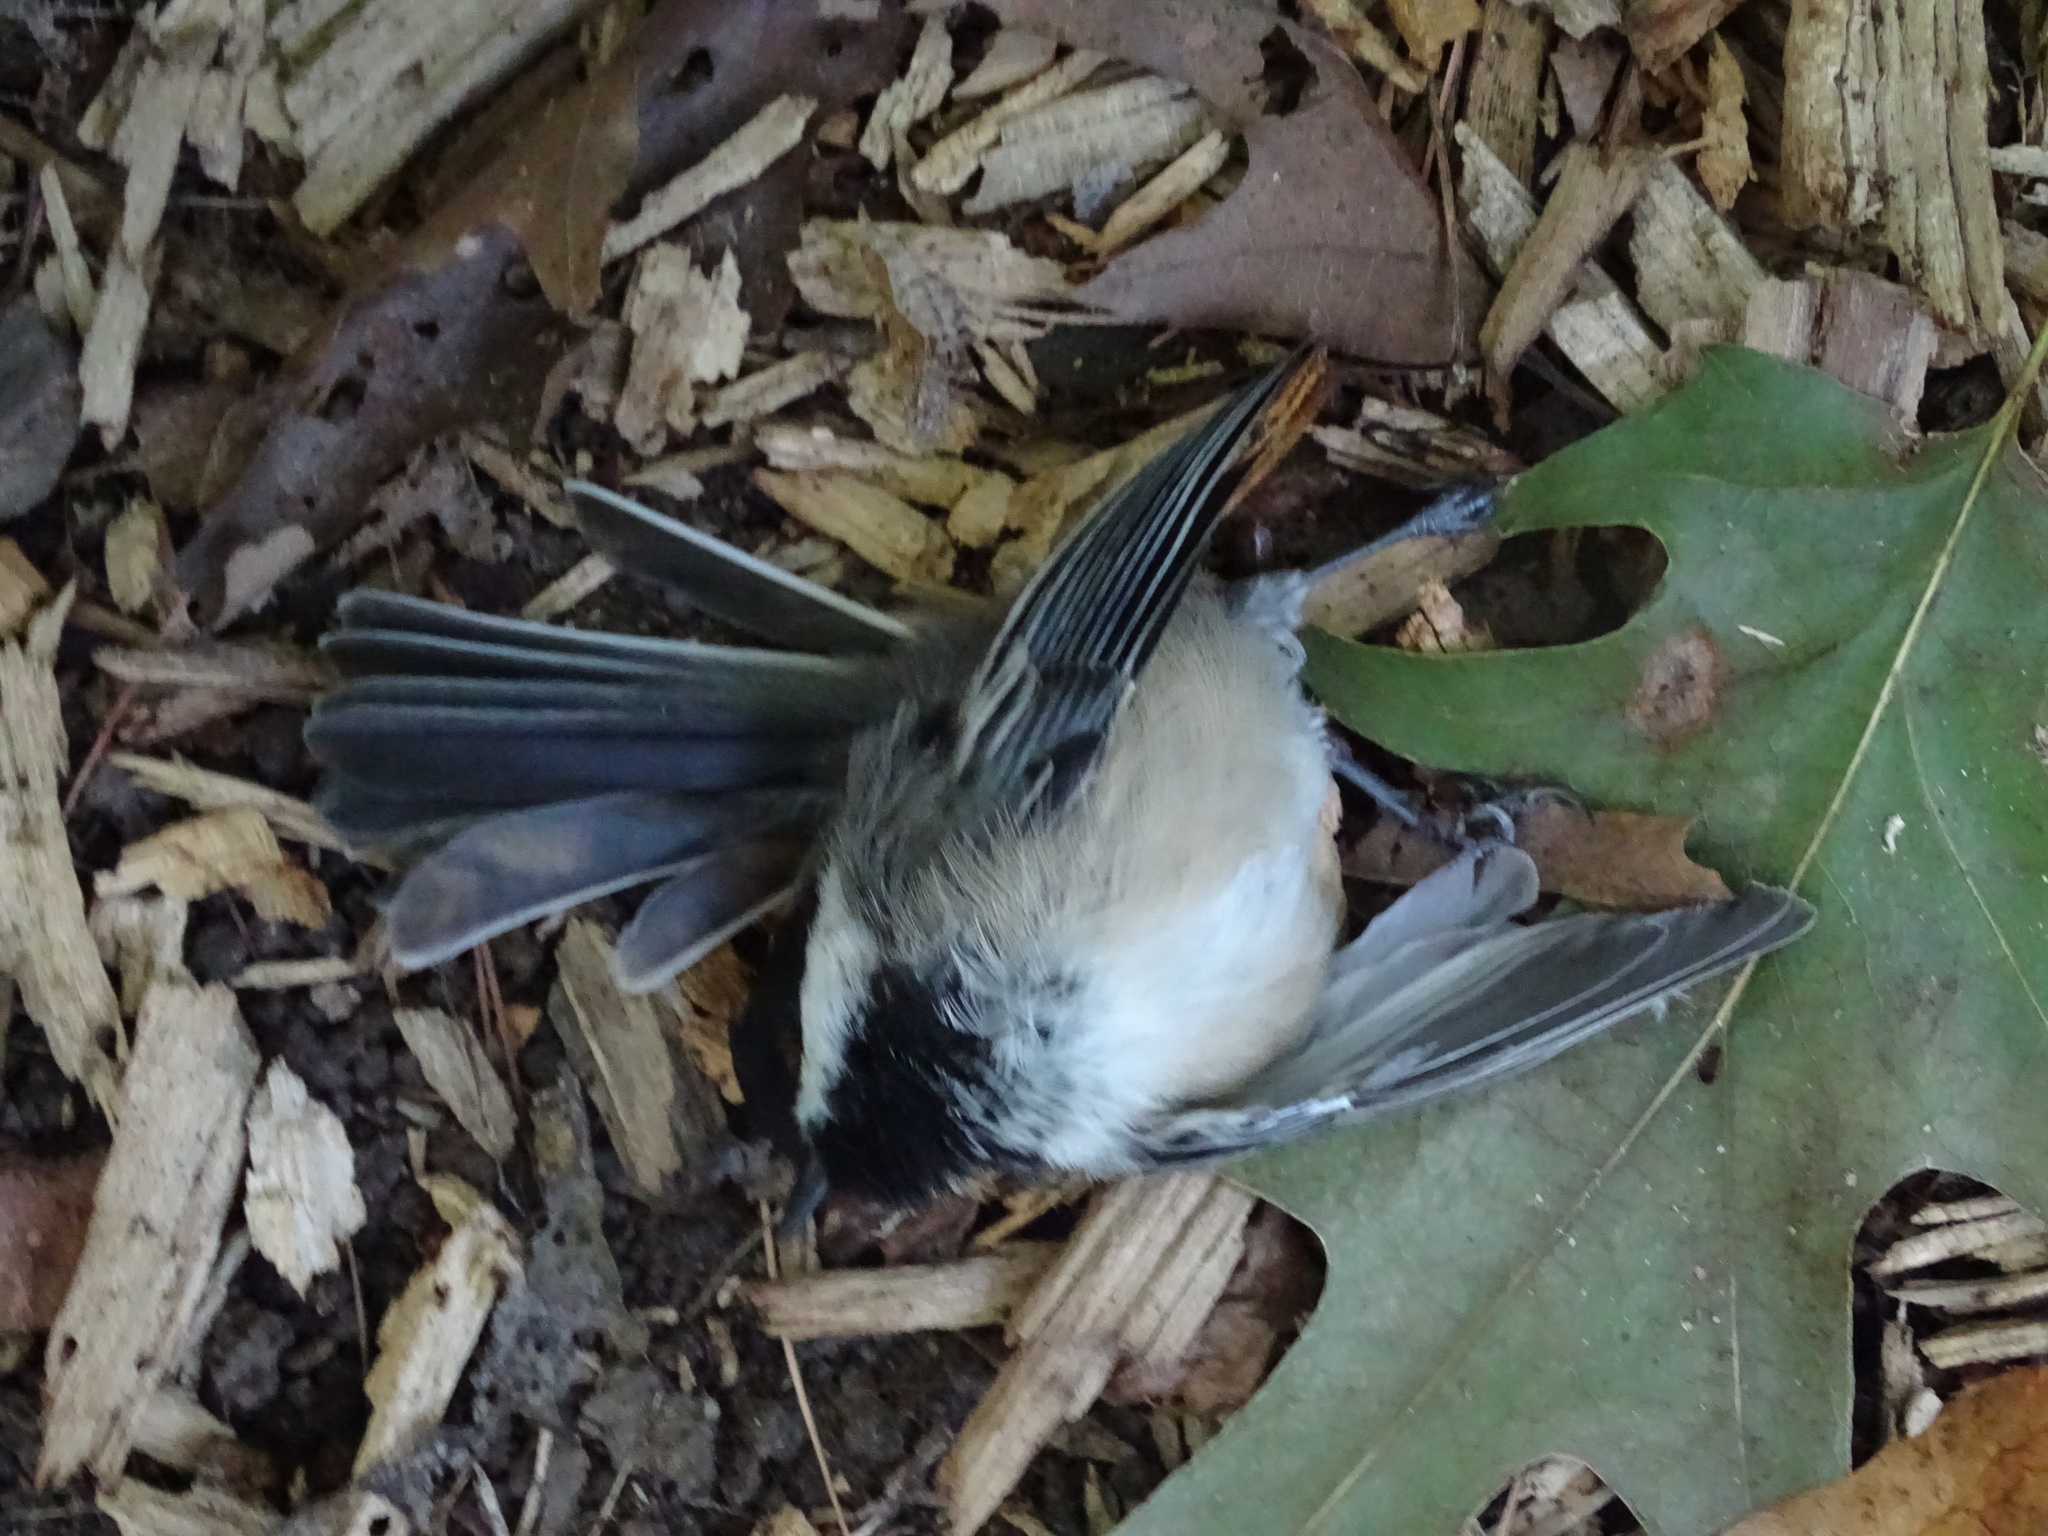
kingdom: Animalia
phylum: Chordata
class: Aves
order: Passeriformes
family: Paridae
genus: Poecile
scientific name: Poecile atricapillus
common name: Black-capped chickadee
